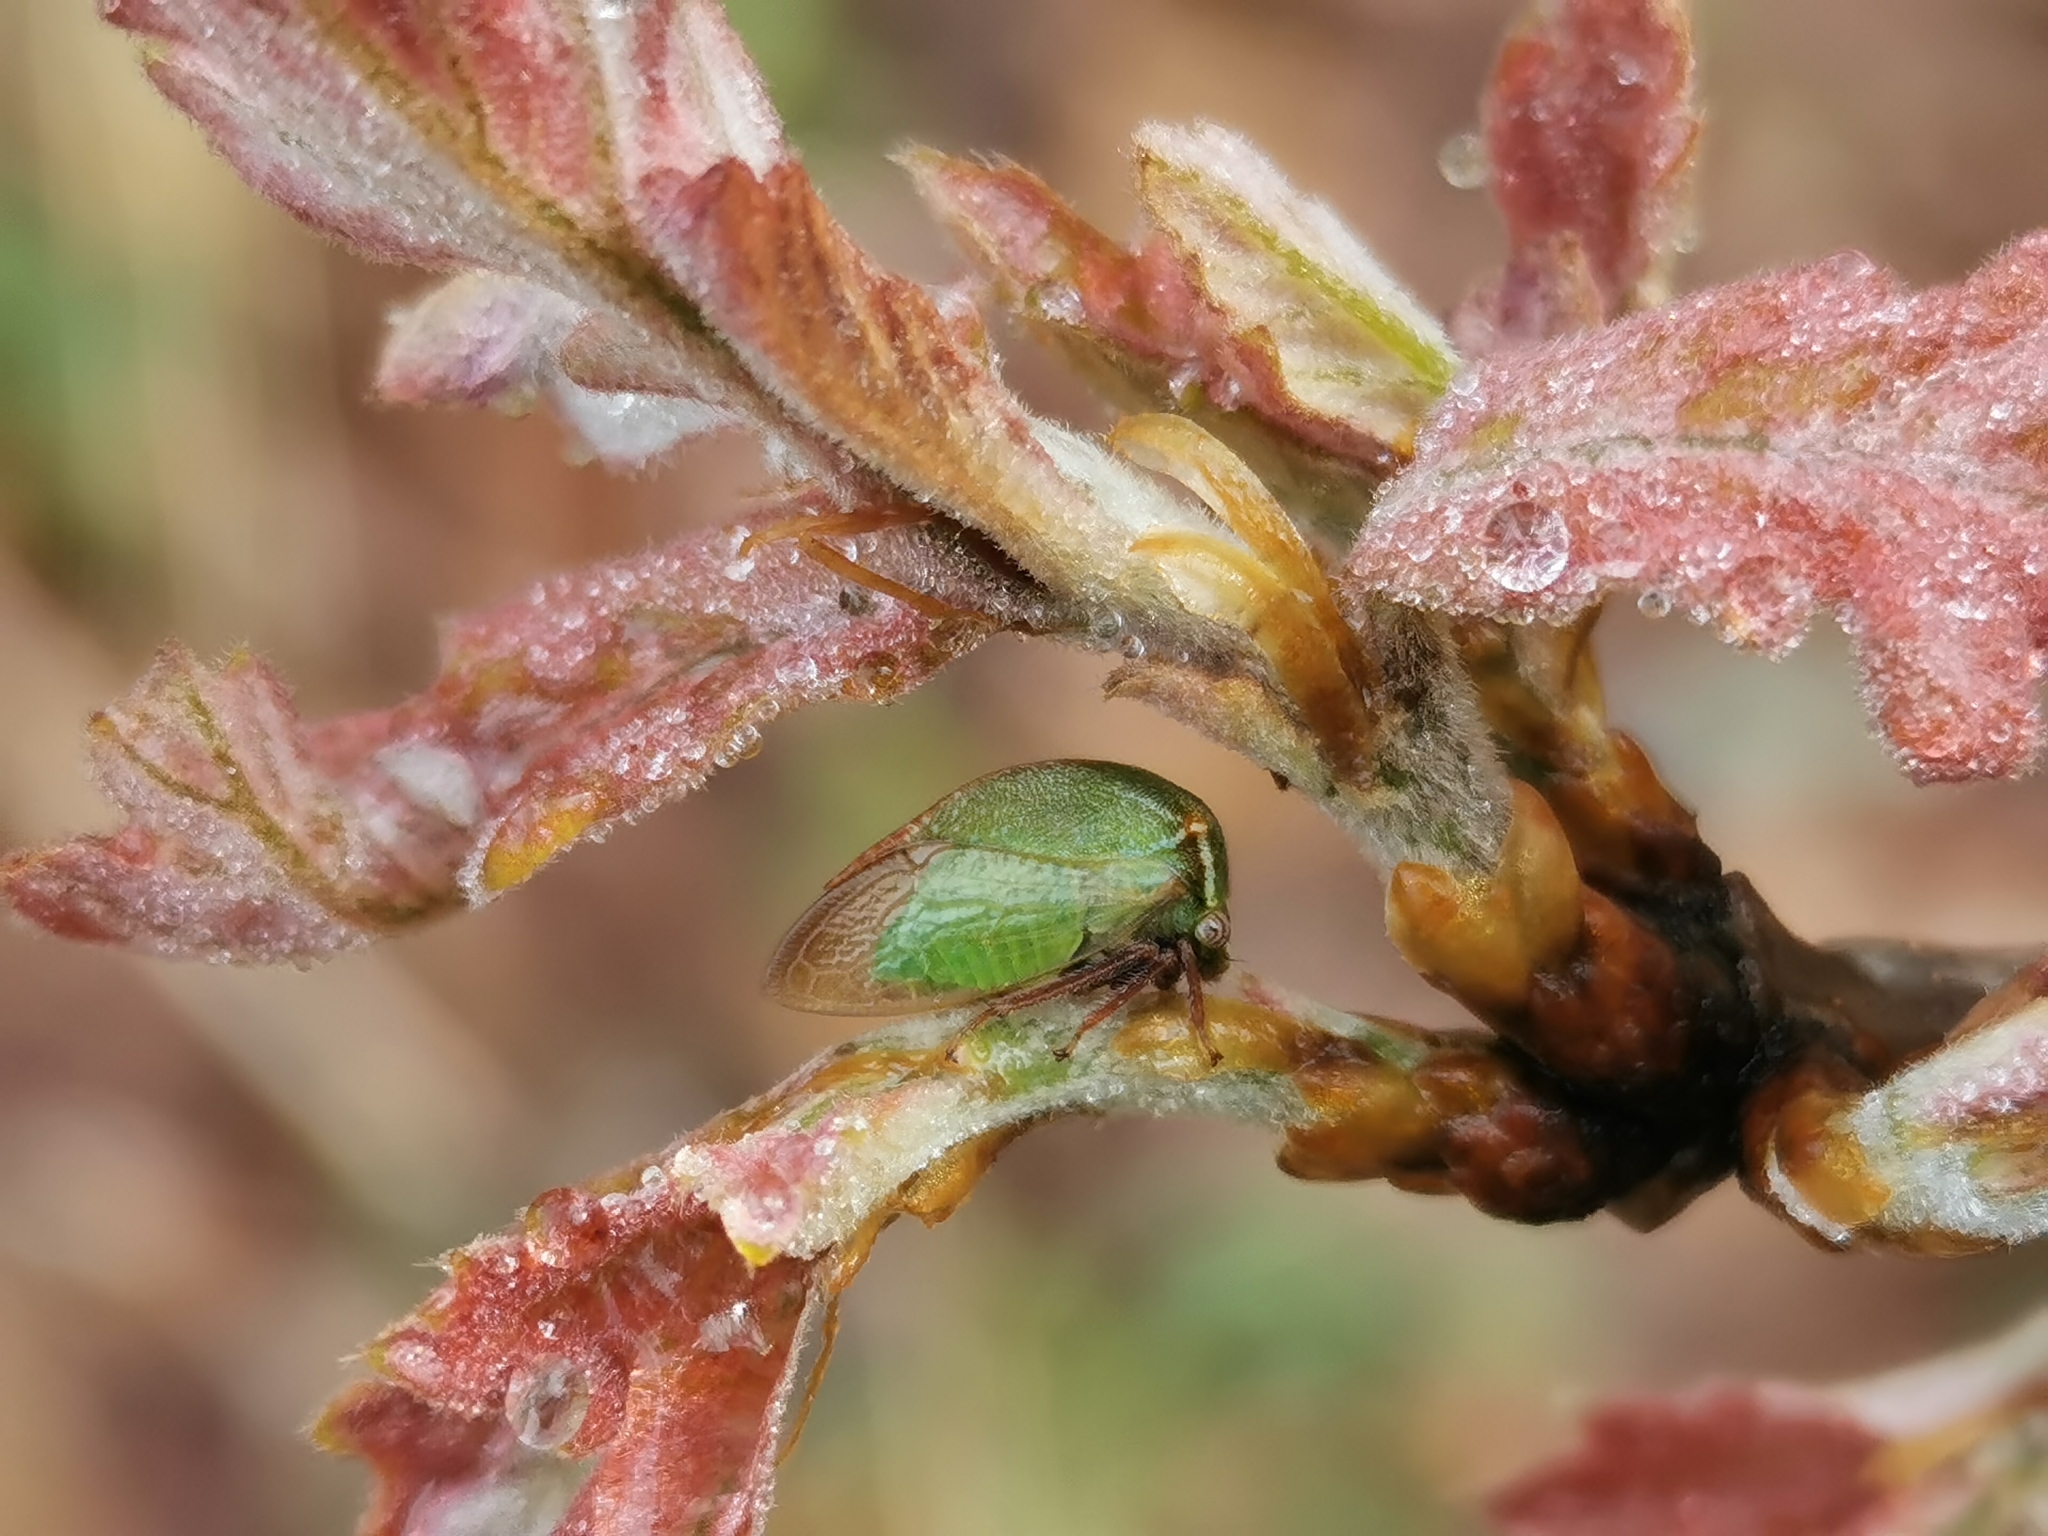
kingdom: Animalia
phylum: Arthropoda
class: Insecta
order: Hemiptera
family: Membracidae
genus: Stictocephala
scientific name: Stictocephala brevitylus
